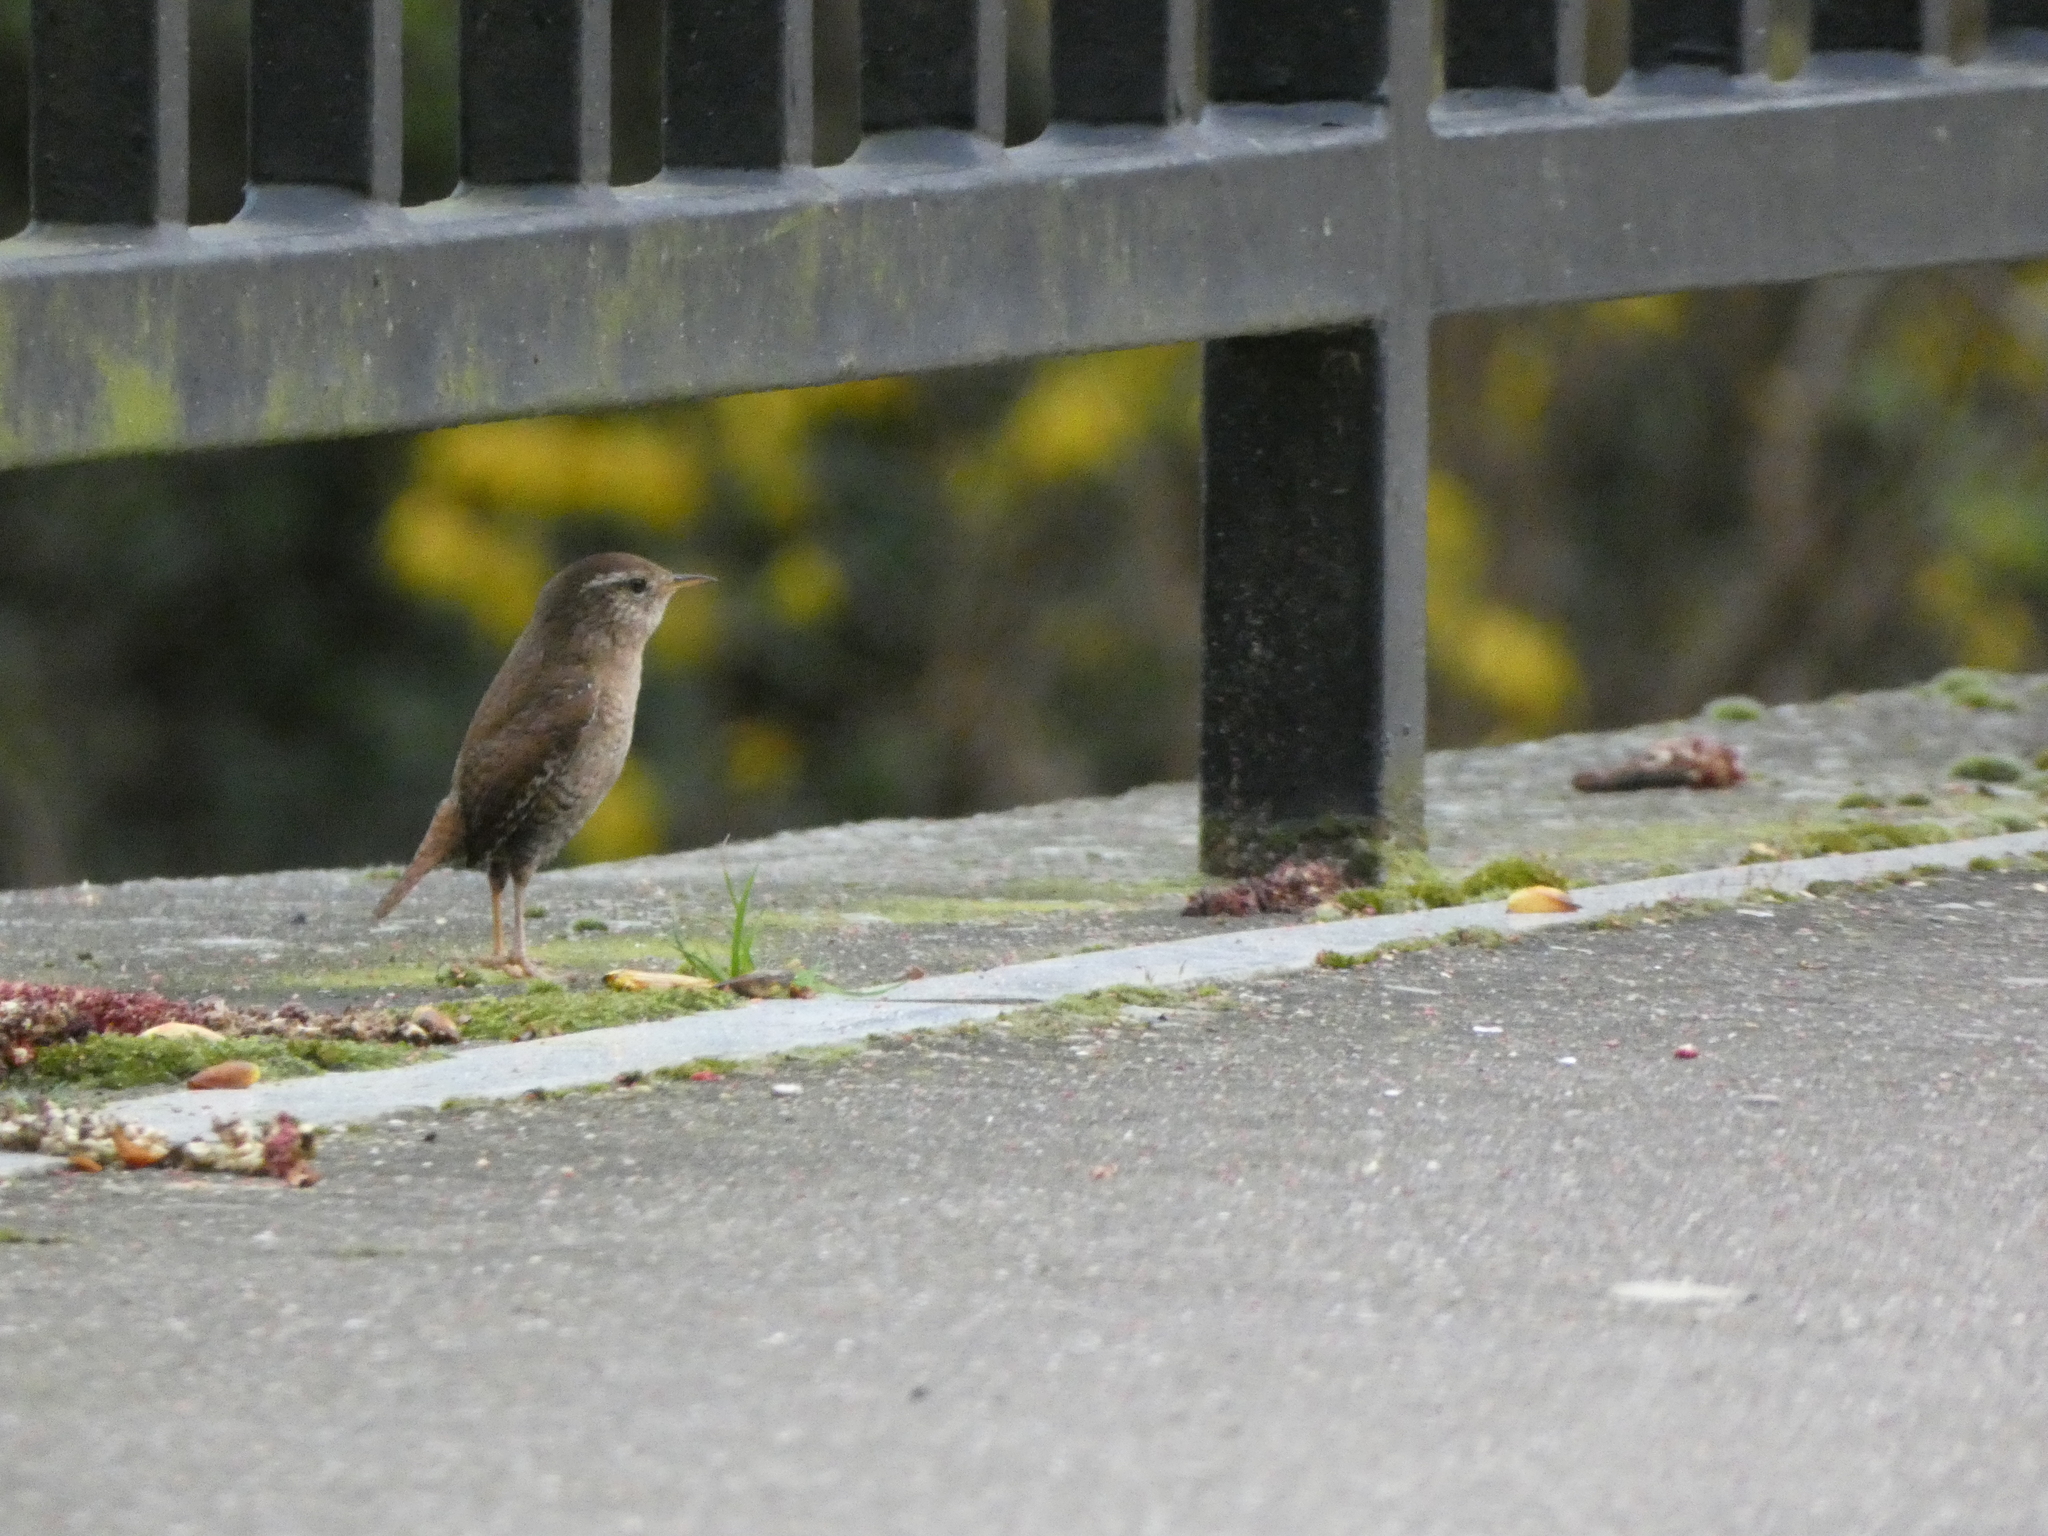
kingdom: Animalia
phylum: Chordata
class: Aves
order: Passeriformes
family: Troglodytidae
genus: Troglodytes
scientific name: Troglodytes troglodytes
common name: Eurasian wren
